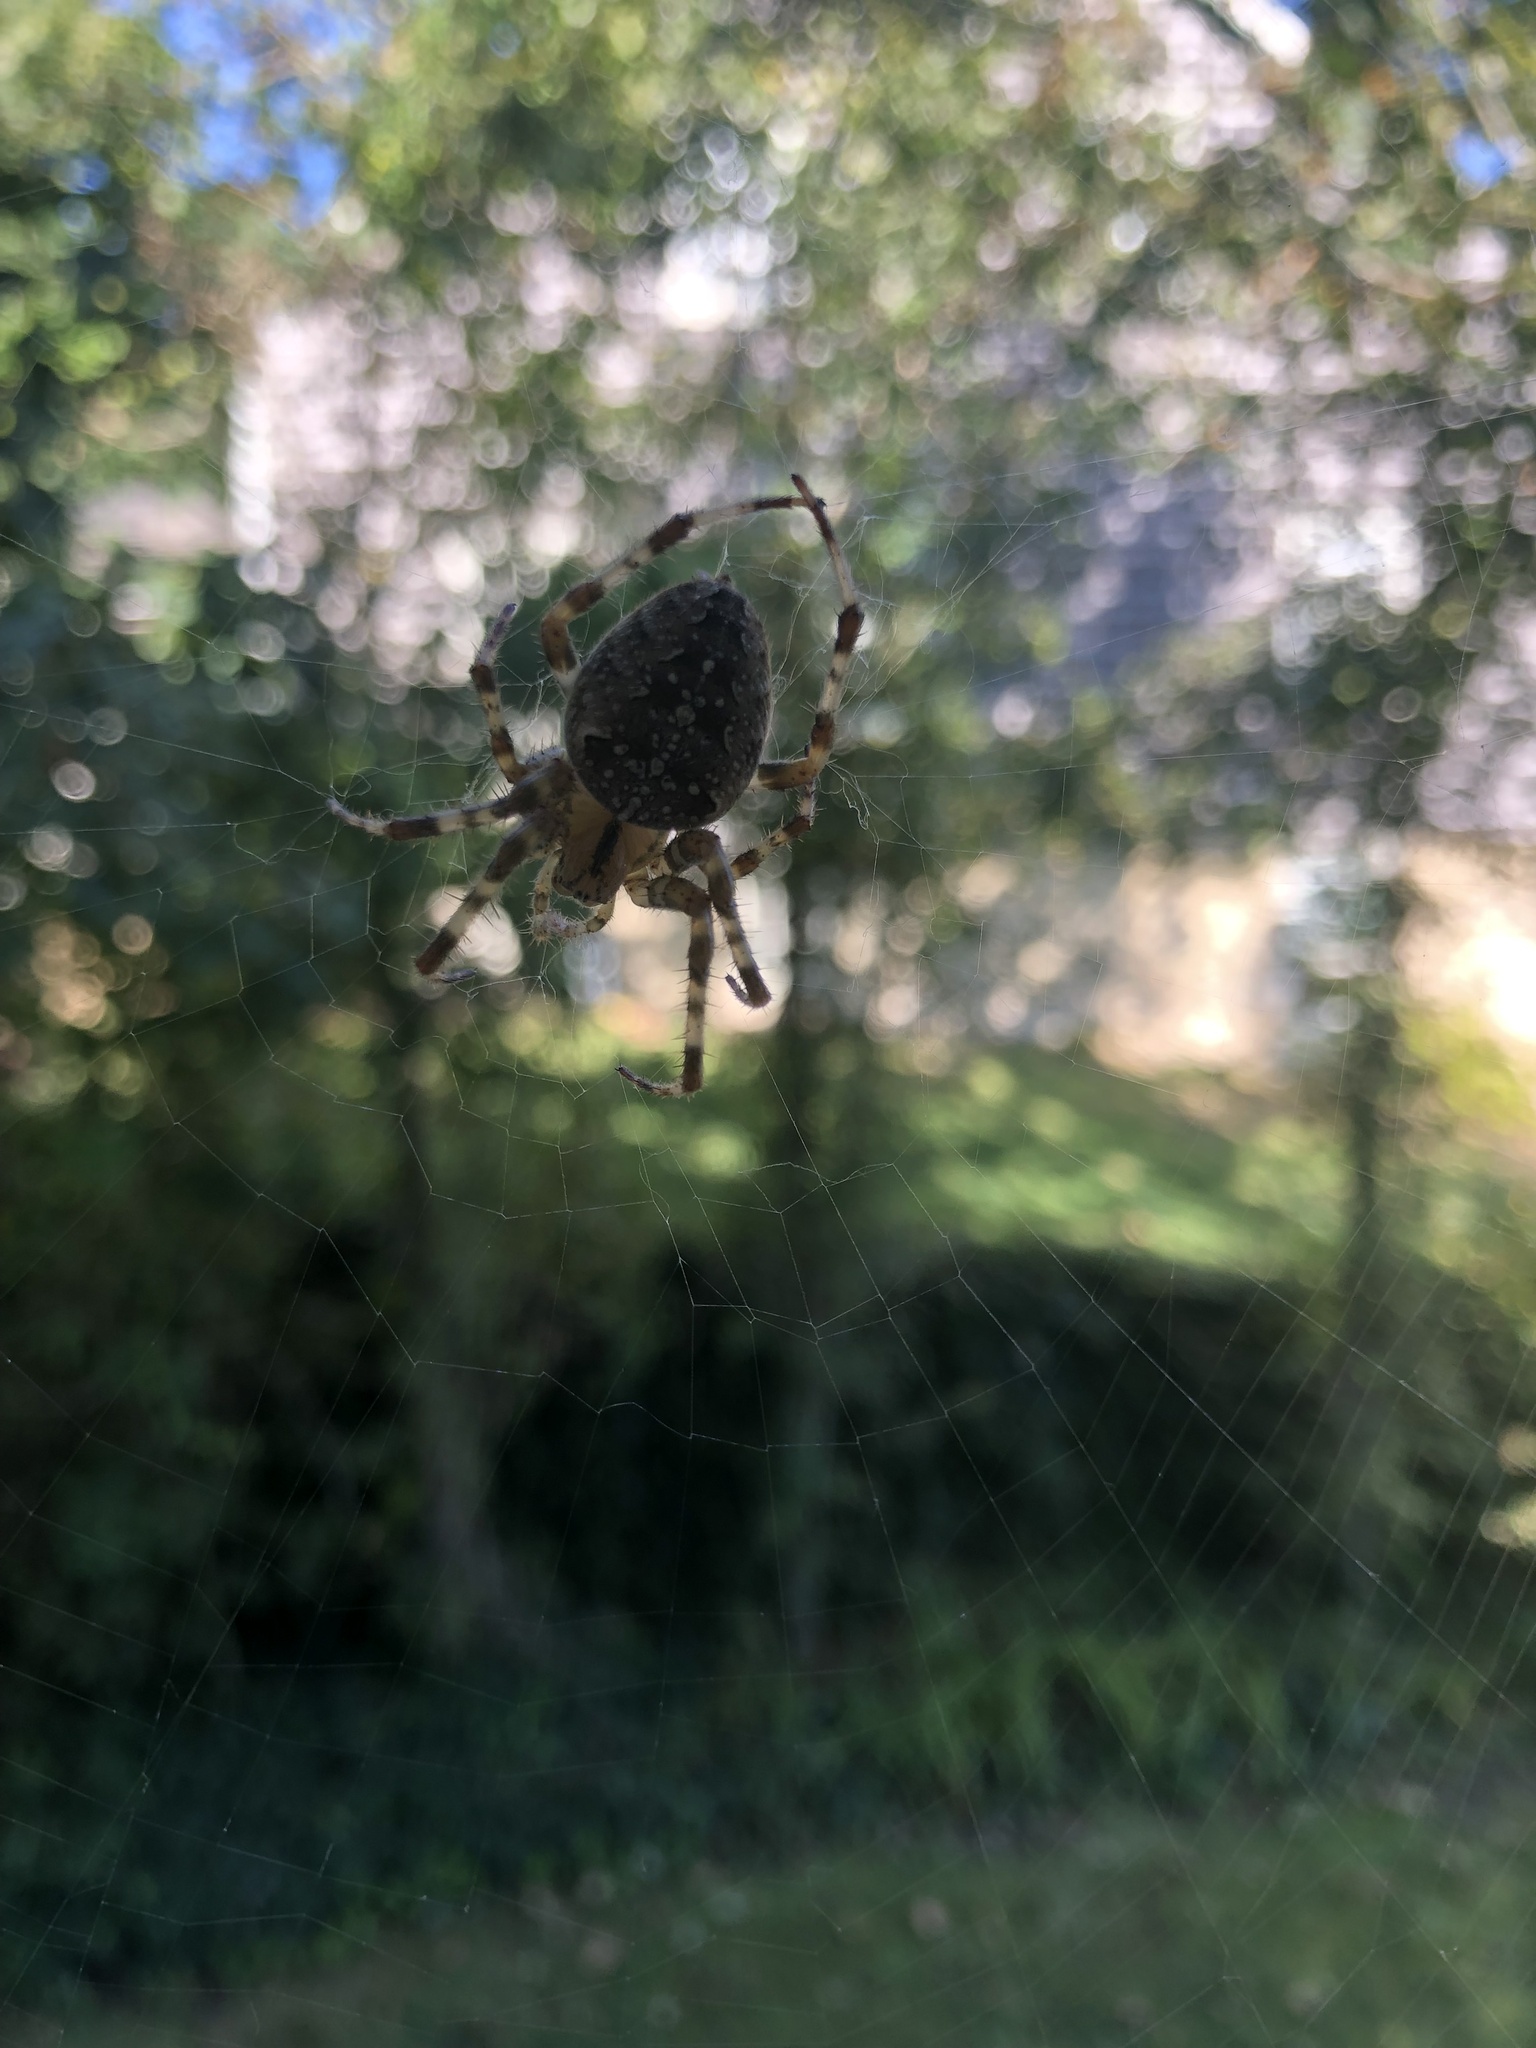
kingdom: Animalia
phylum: Arthropoda
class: Arachnida
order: Araneae
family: Araneidae
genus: Araneus
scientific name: Araneus diadematus
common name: Cross orbweaver
